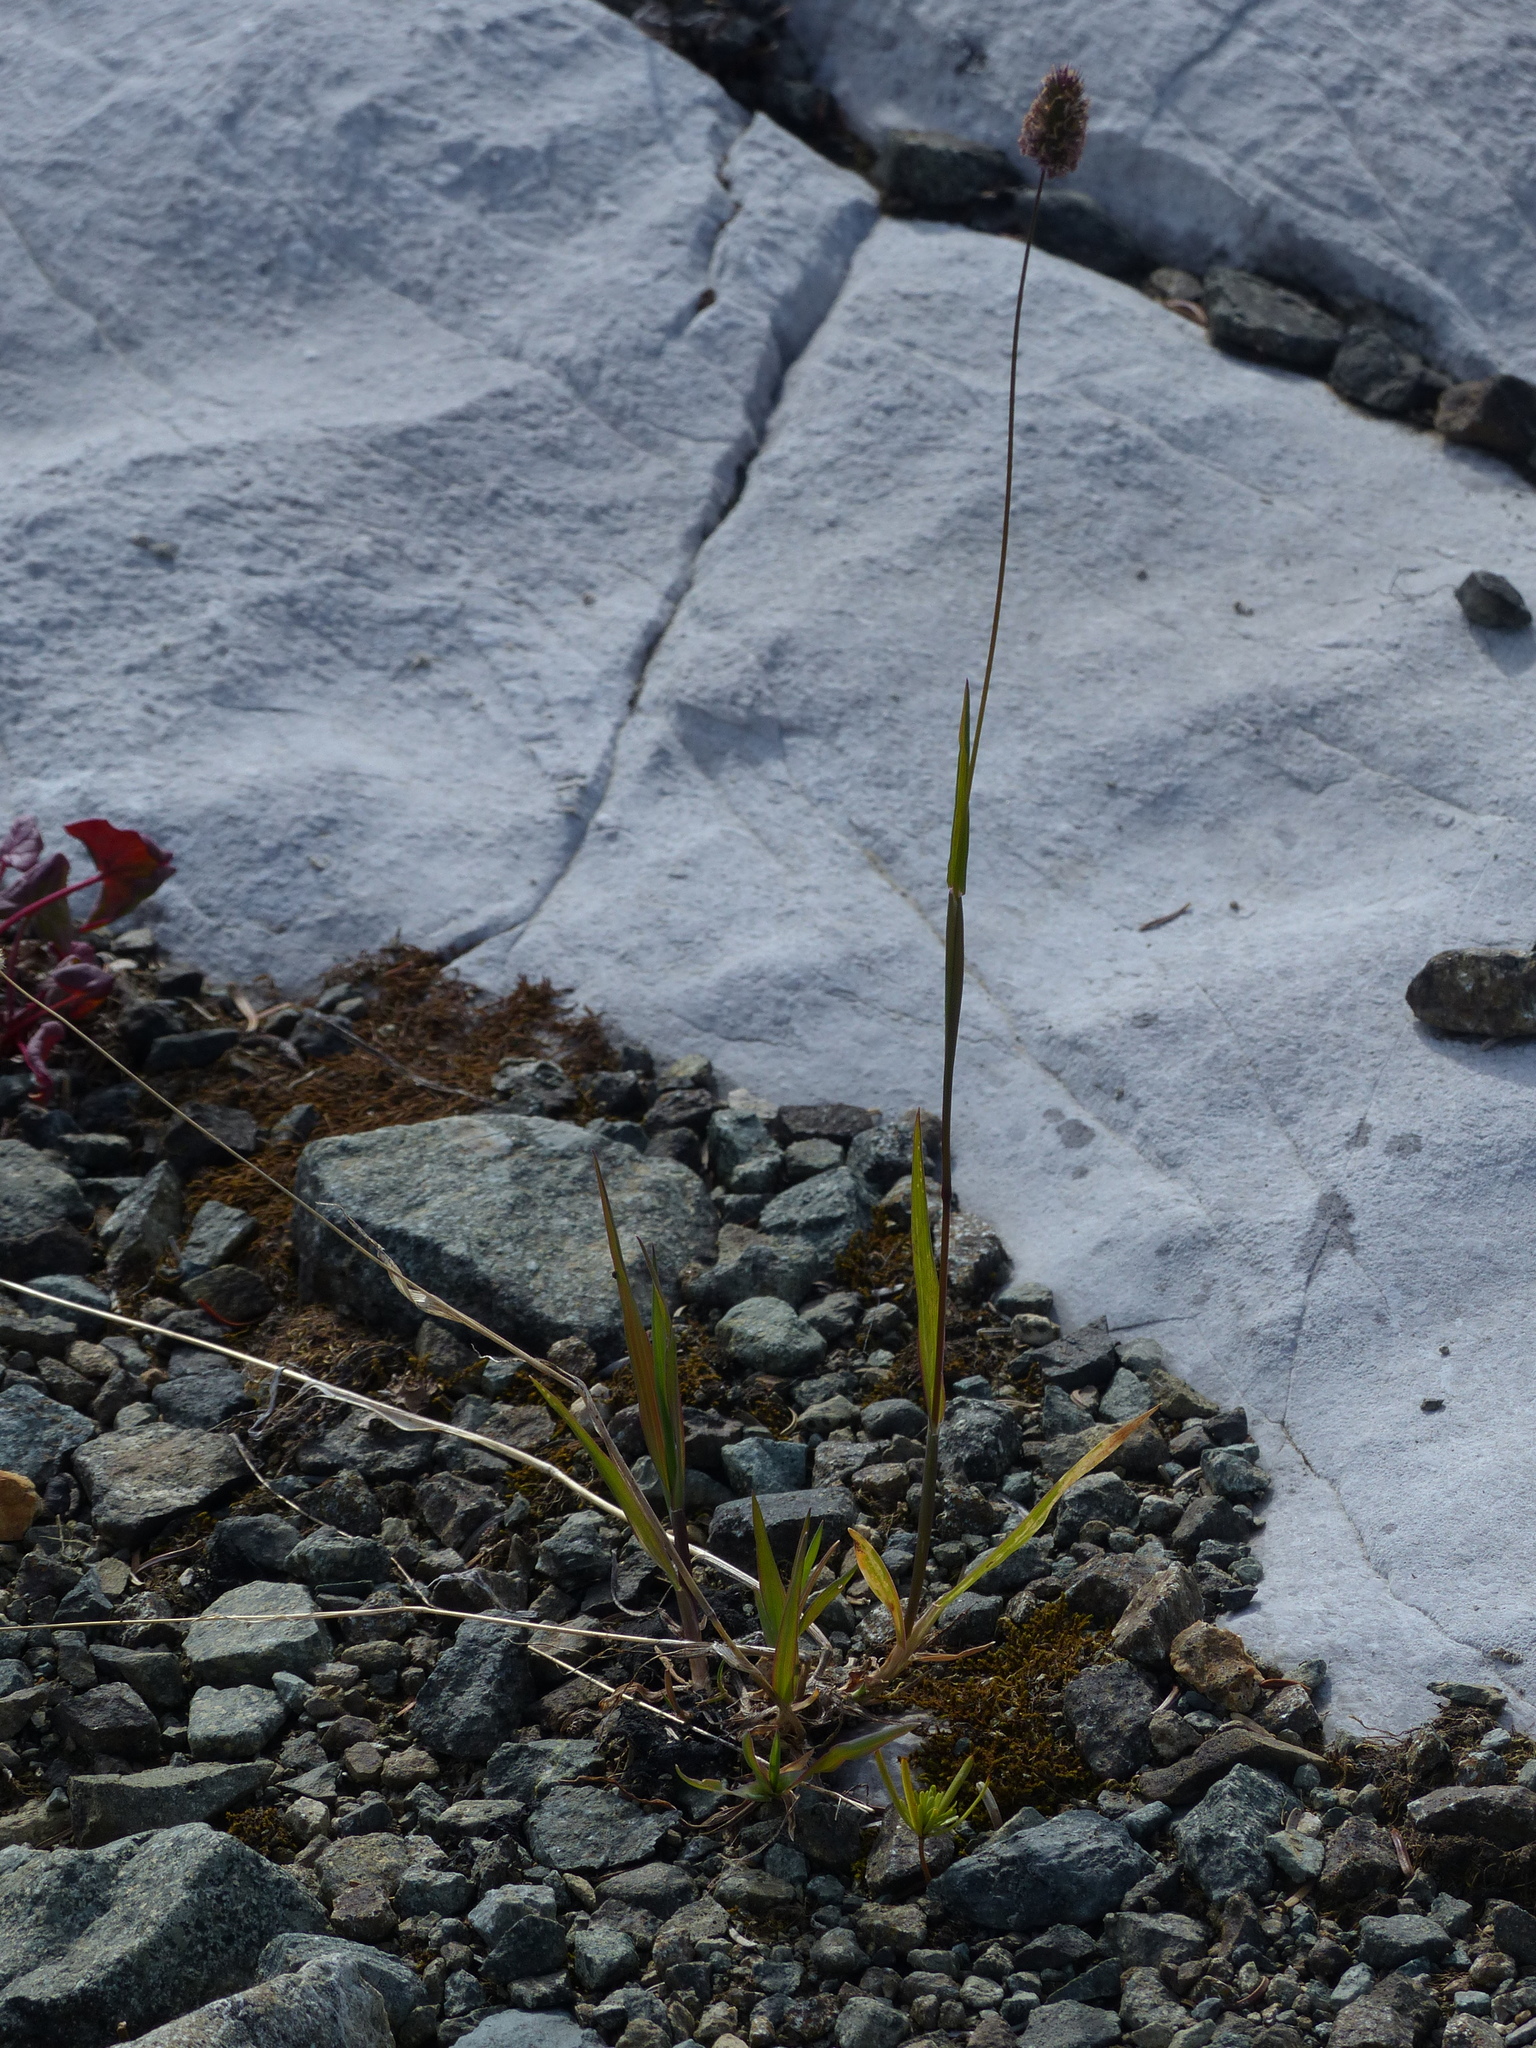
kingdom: Plantae
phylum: Tracheophyta
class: Liliopsida
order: Poales
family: Poaceae
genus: Phleum
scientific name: Phleum alpinum
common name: Alpine cat's-tail
